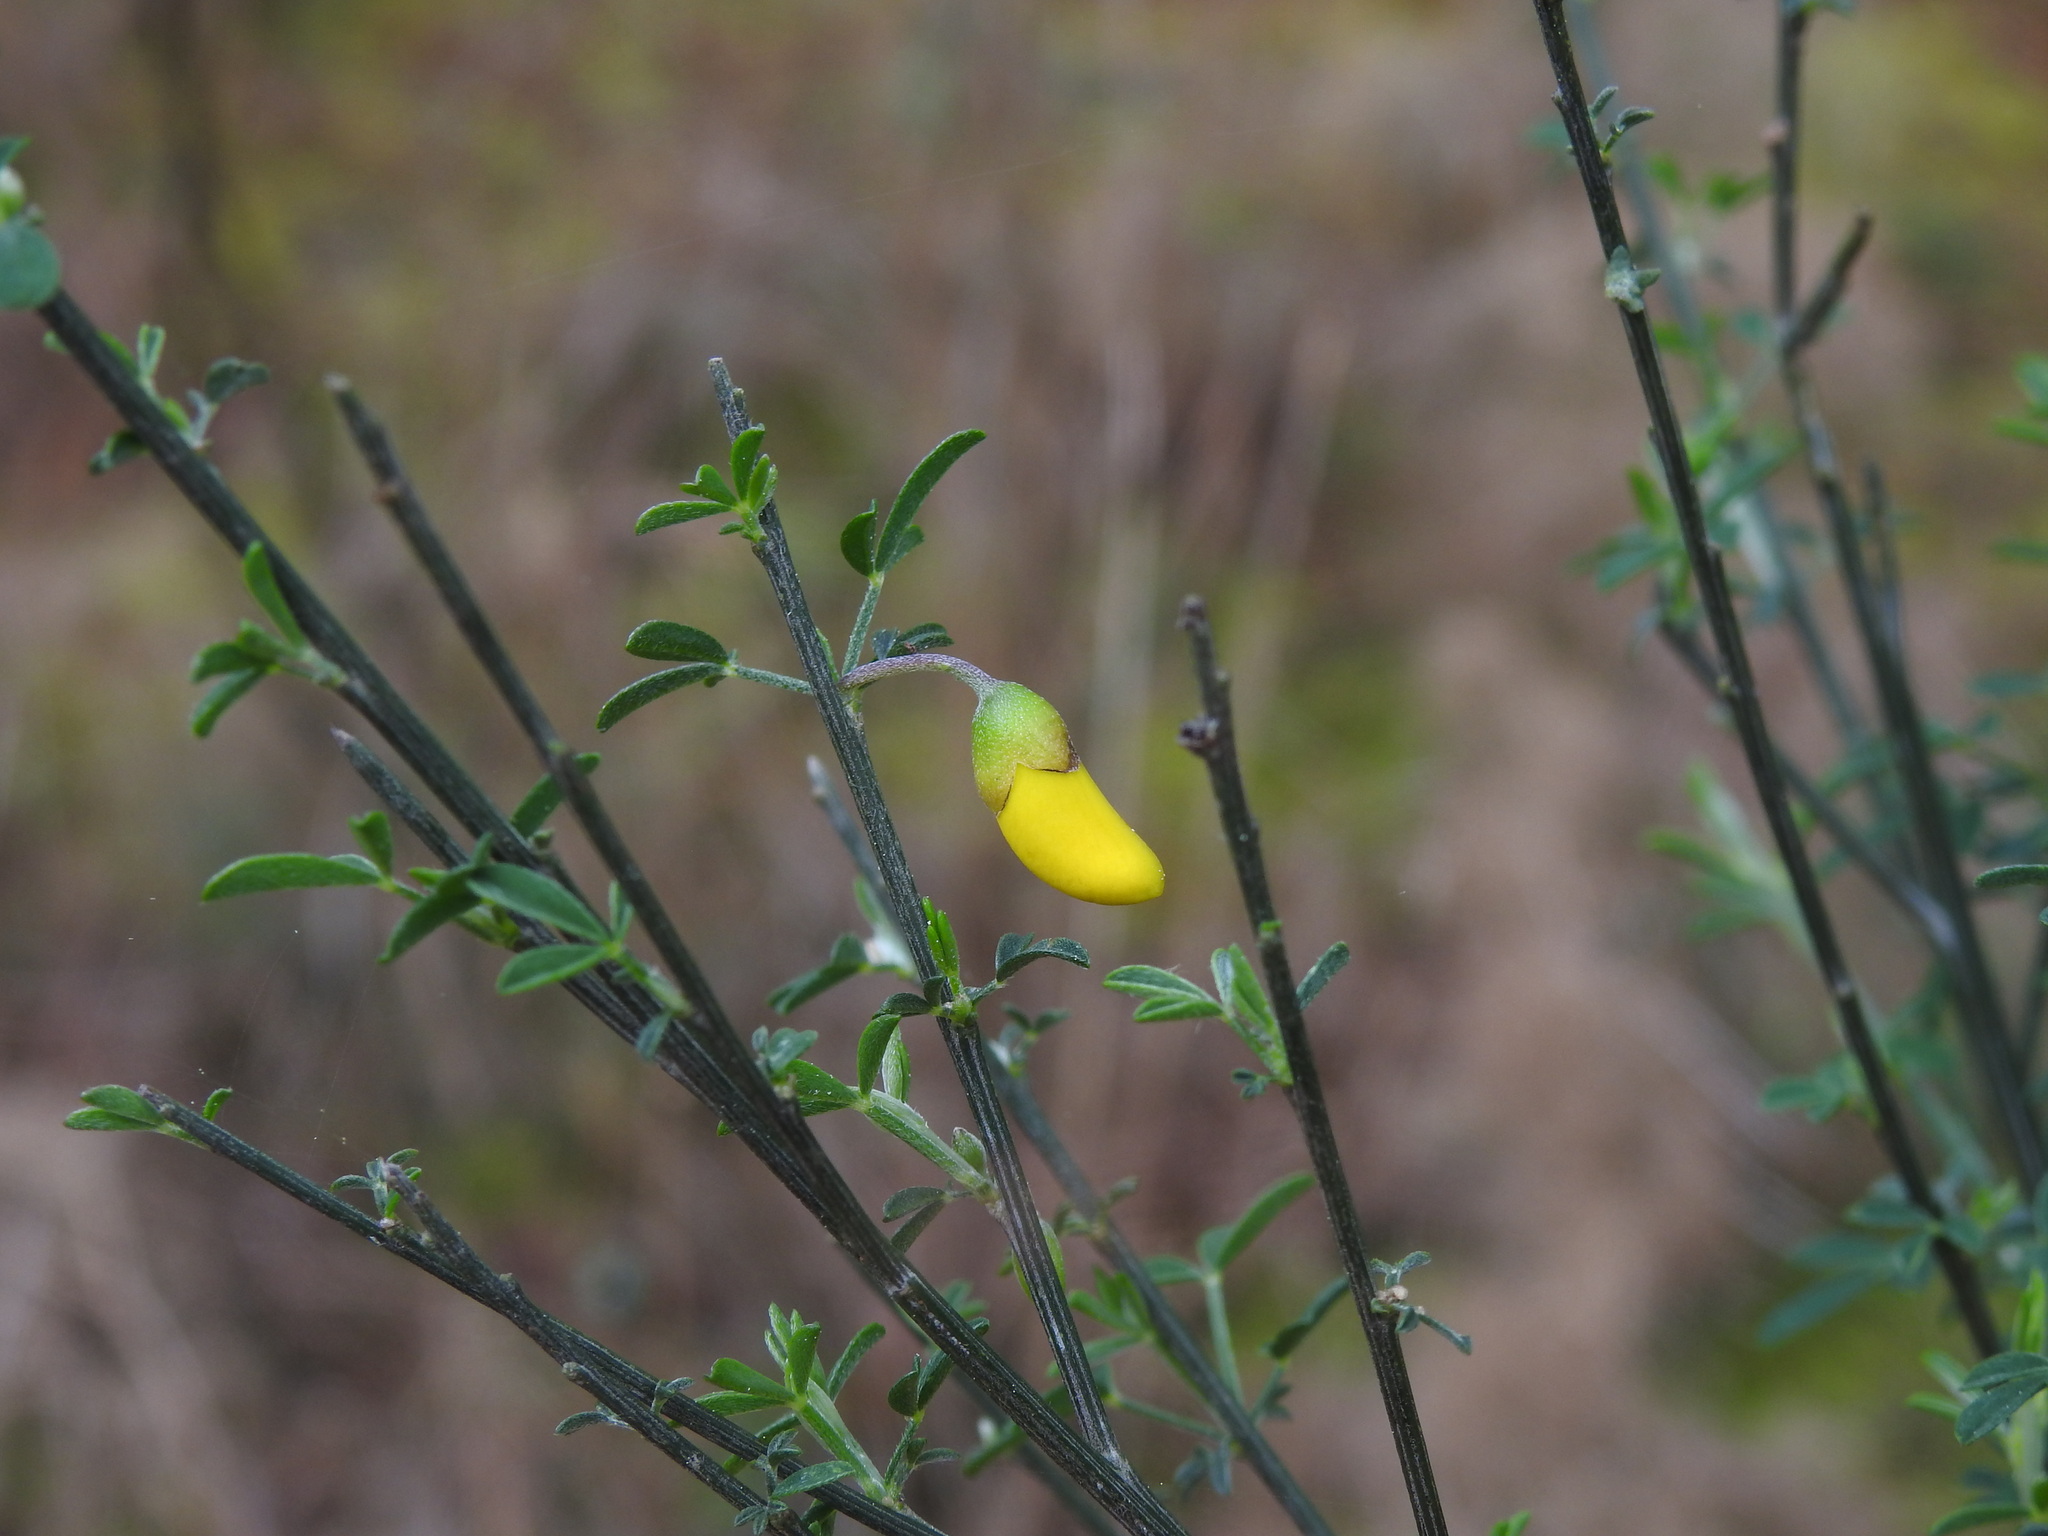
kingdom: Plantae
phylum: Tracheophyta
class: Magnoliopsida
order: Fabales
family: Fabaceae
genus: Cytisus
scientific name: Cytisus striatus
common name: Hairy-fruited broom
